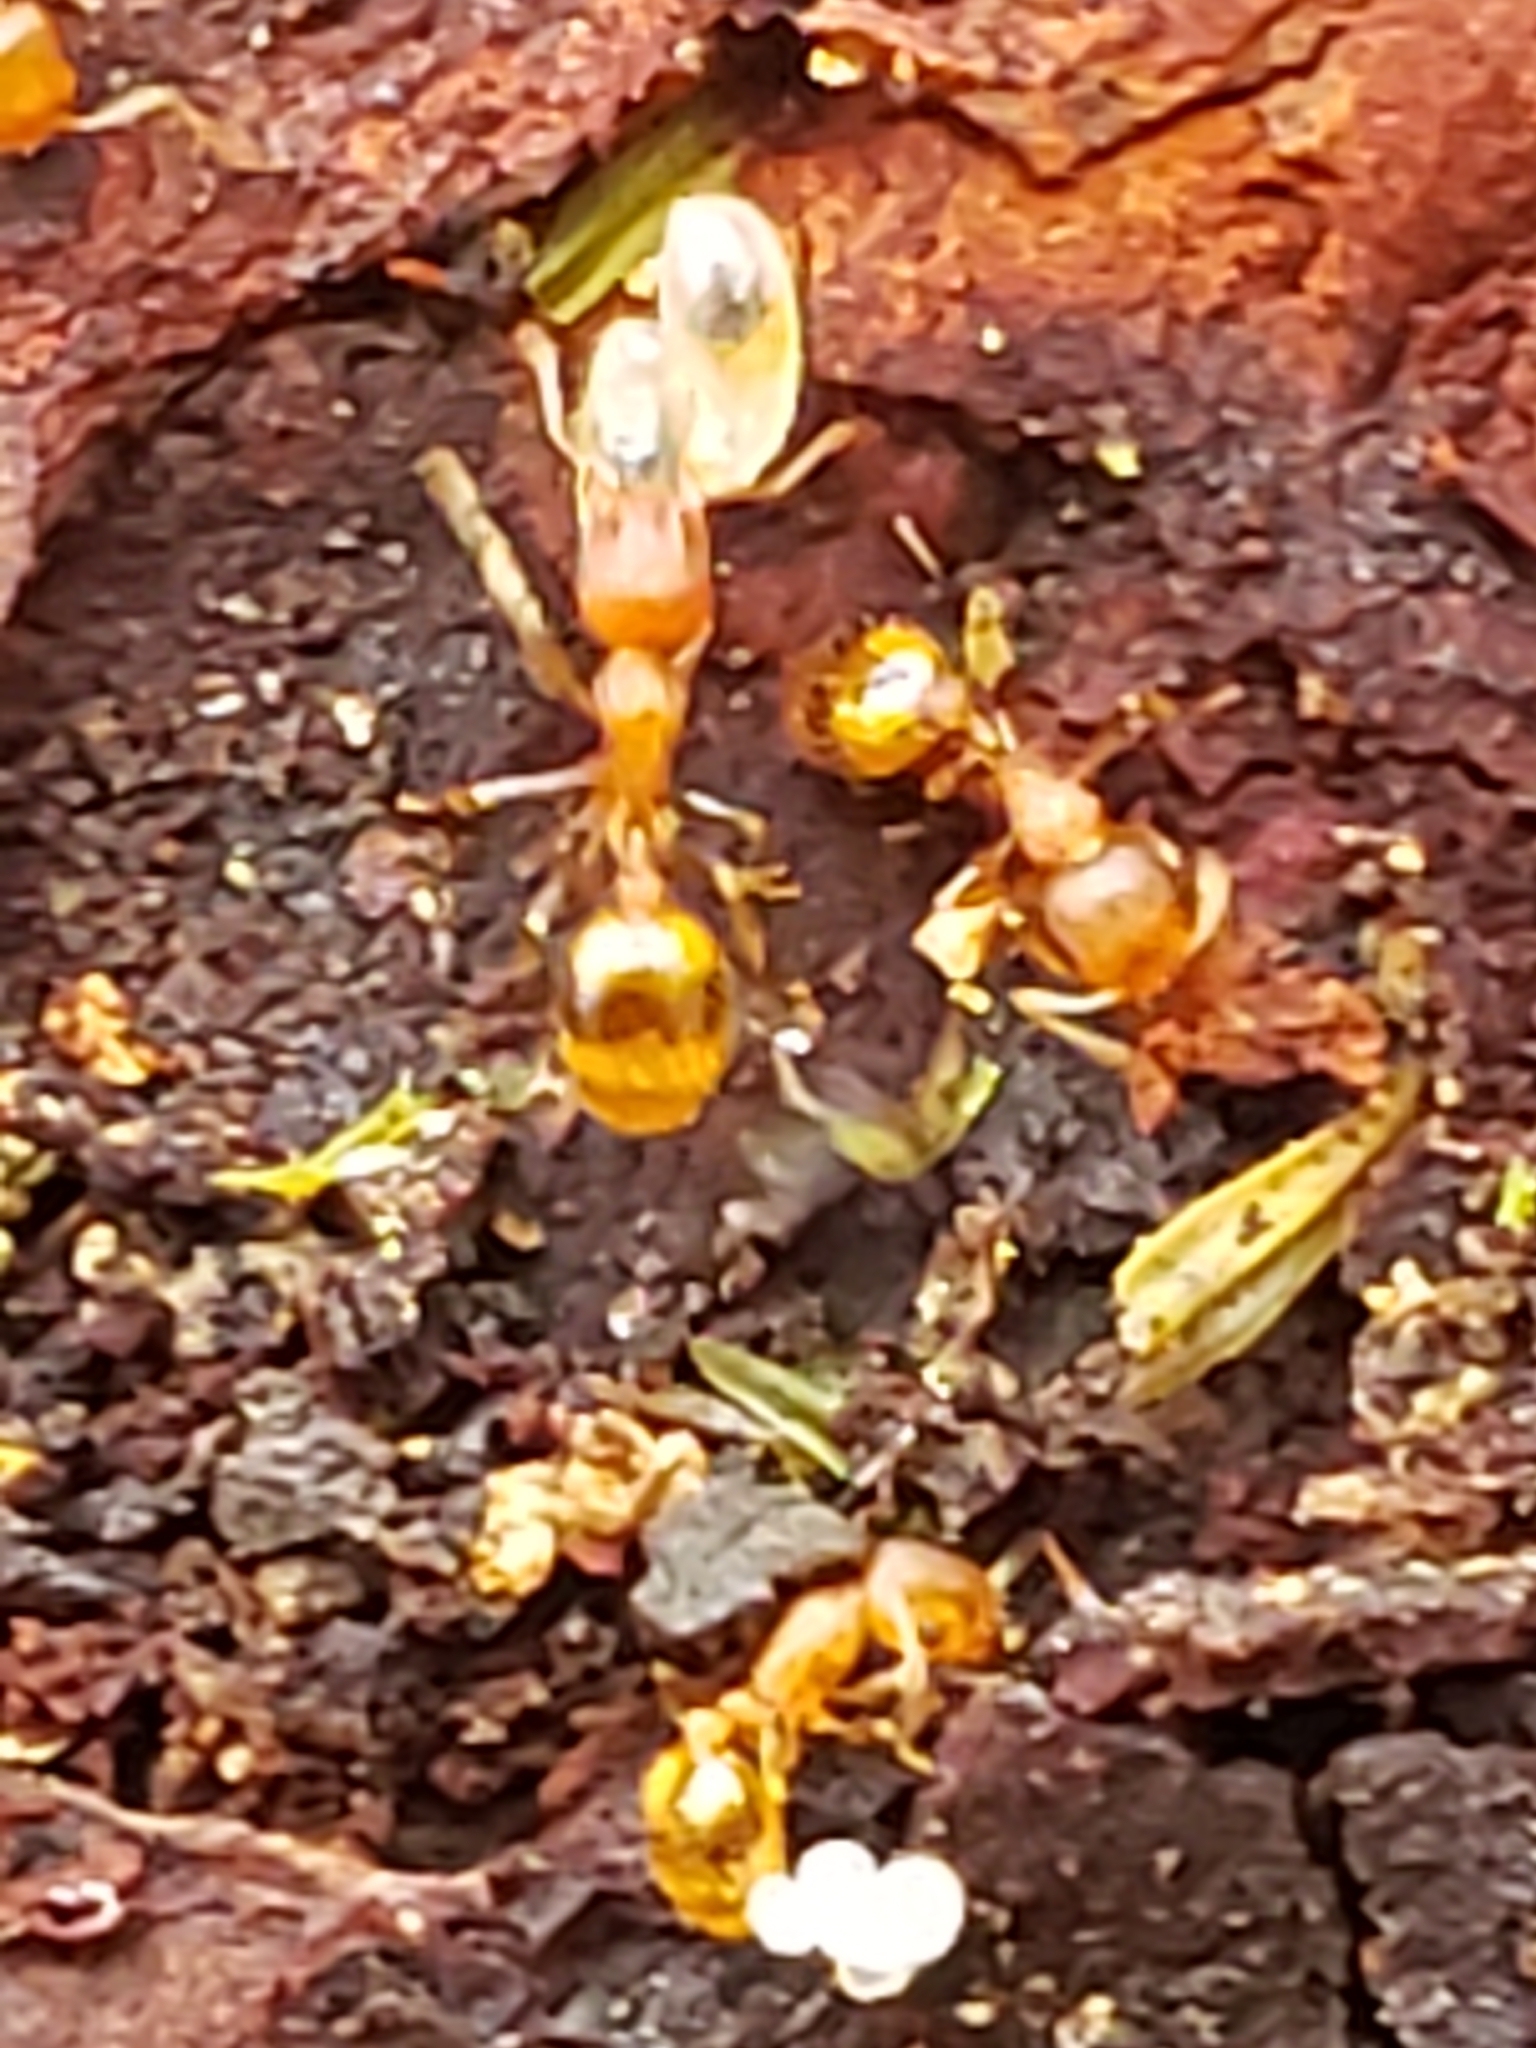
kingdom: Animalia
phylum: Arthropoda
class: Insecta
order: Hymenoptera
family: Formicidae
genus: Temnothorax
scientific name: Temnothorax curvispinosus
